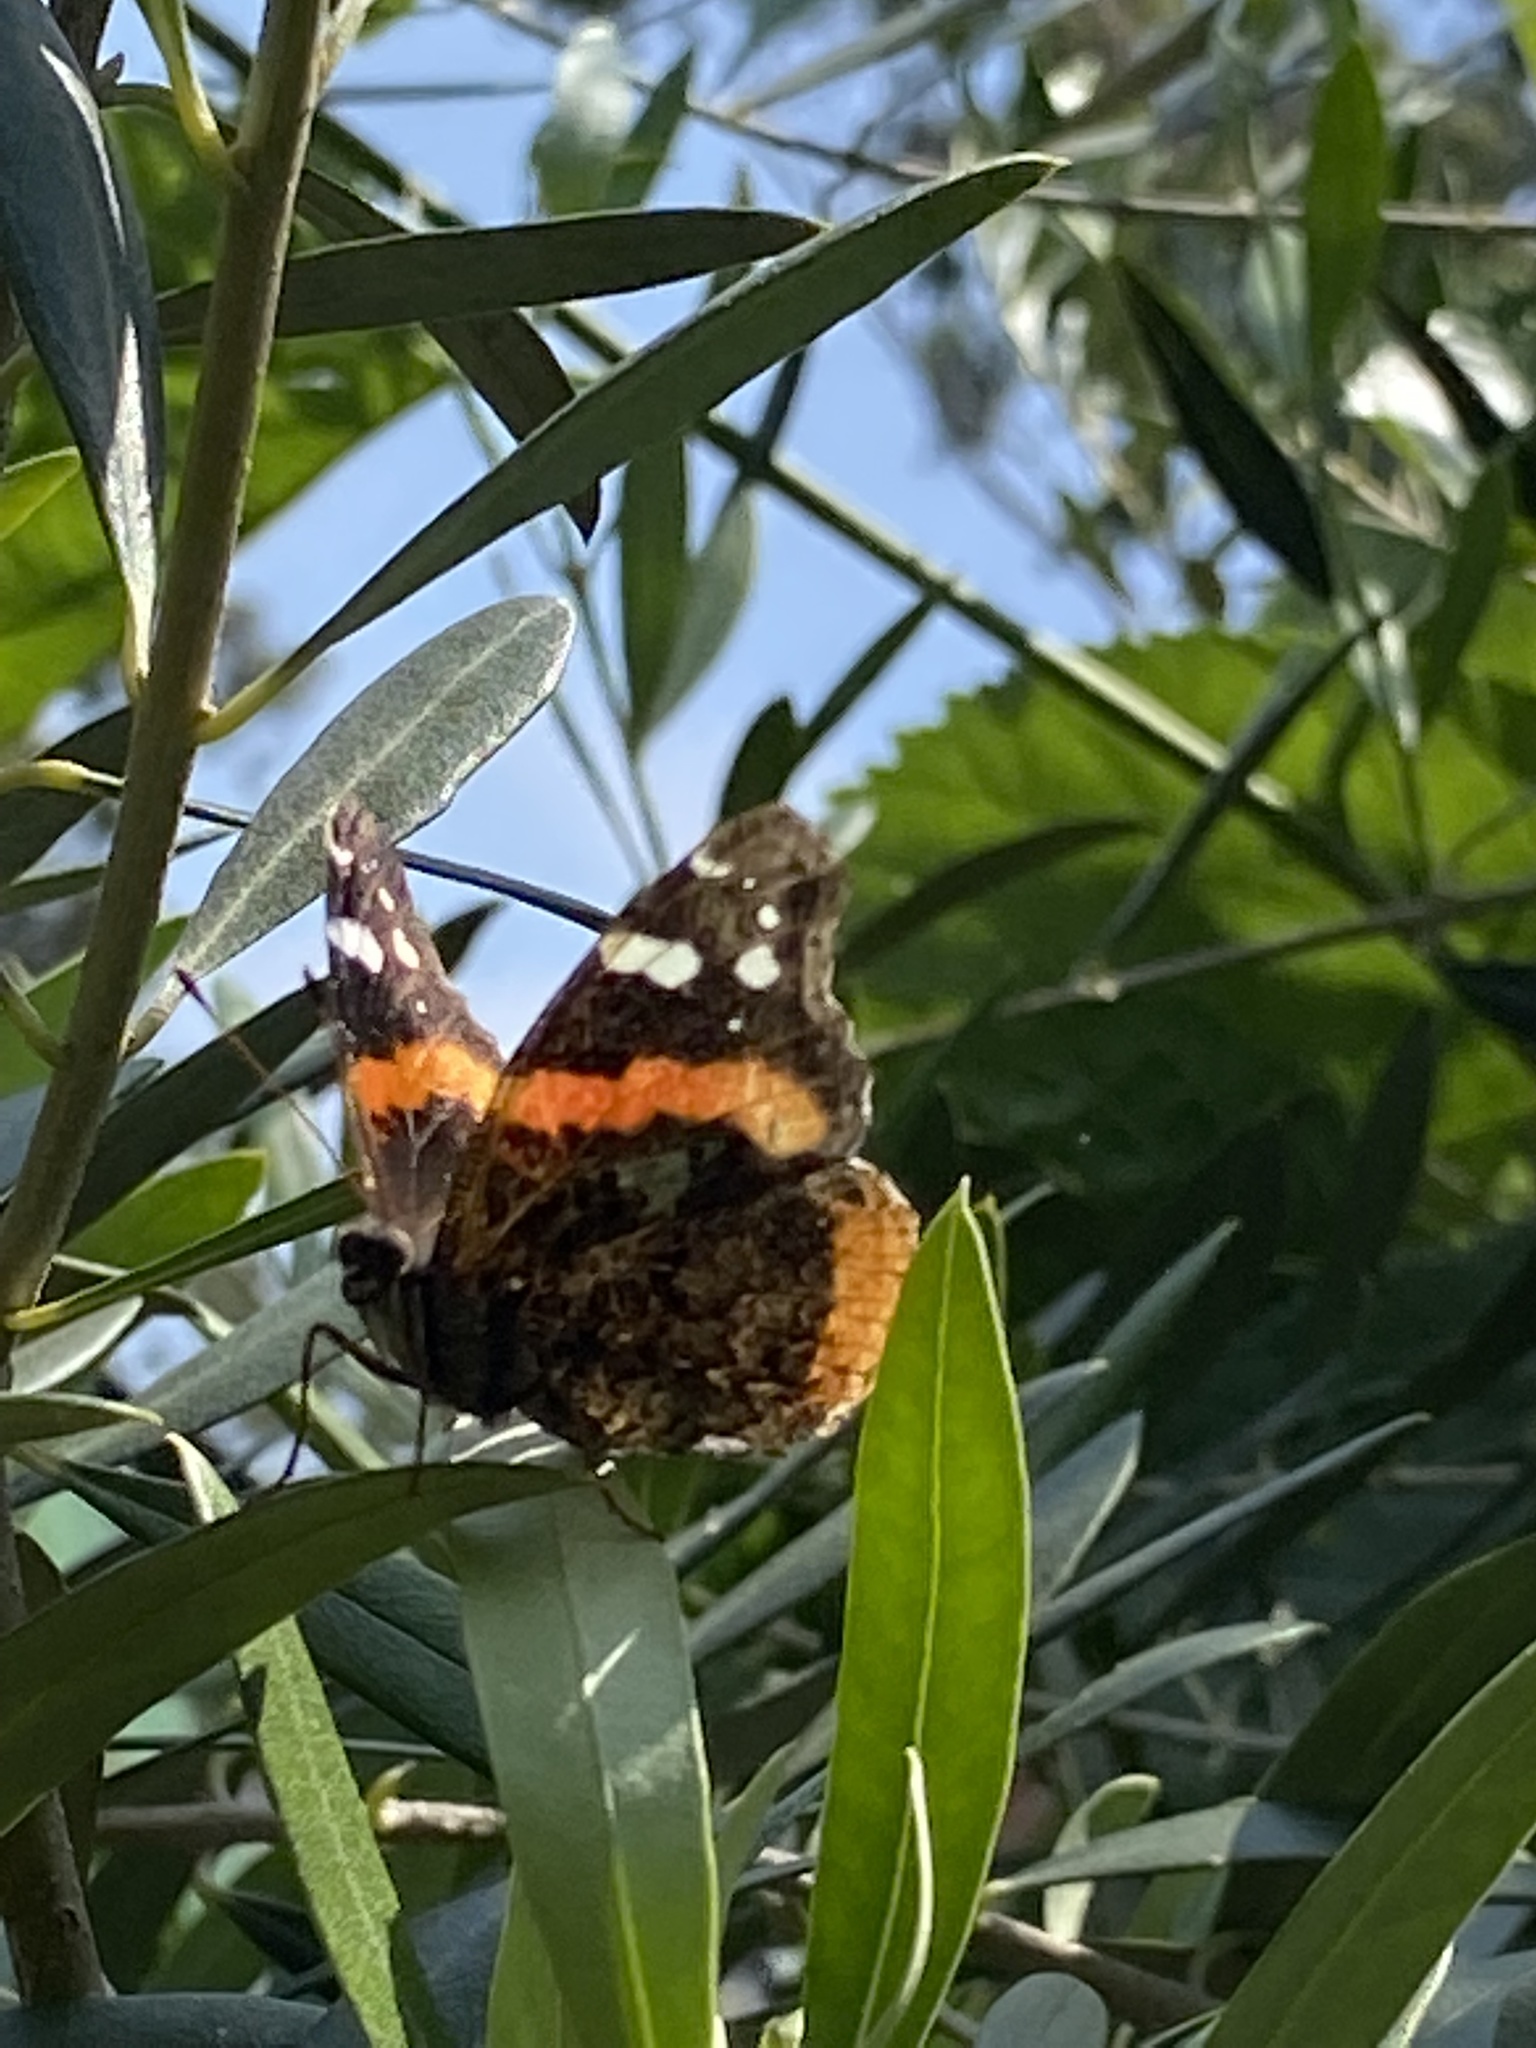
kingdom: Animalia
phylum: Arthropoda
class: Insecta
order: Lepidoptera
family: Nymphalidae
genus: Vanessa
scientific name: Vanessa atalanta
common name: Red admiral
